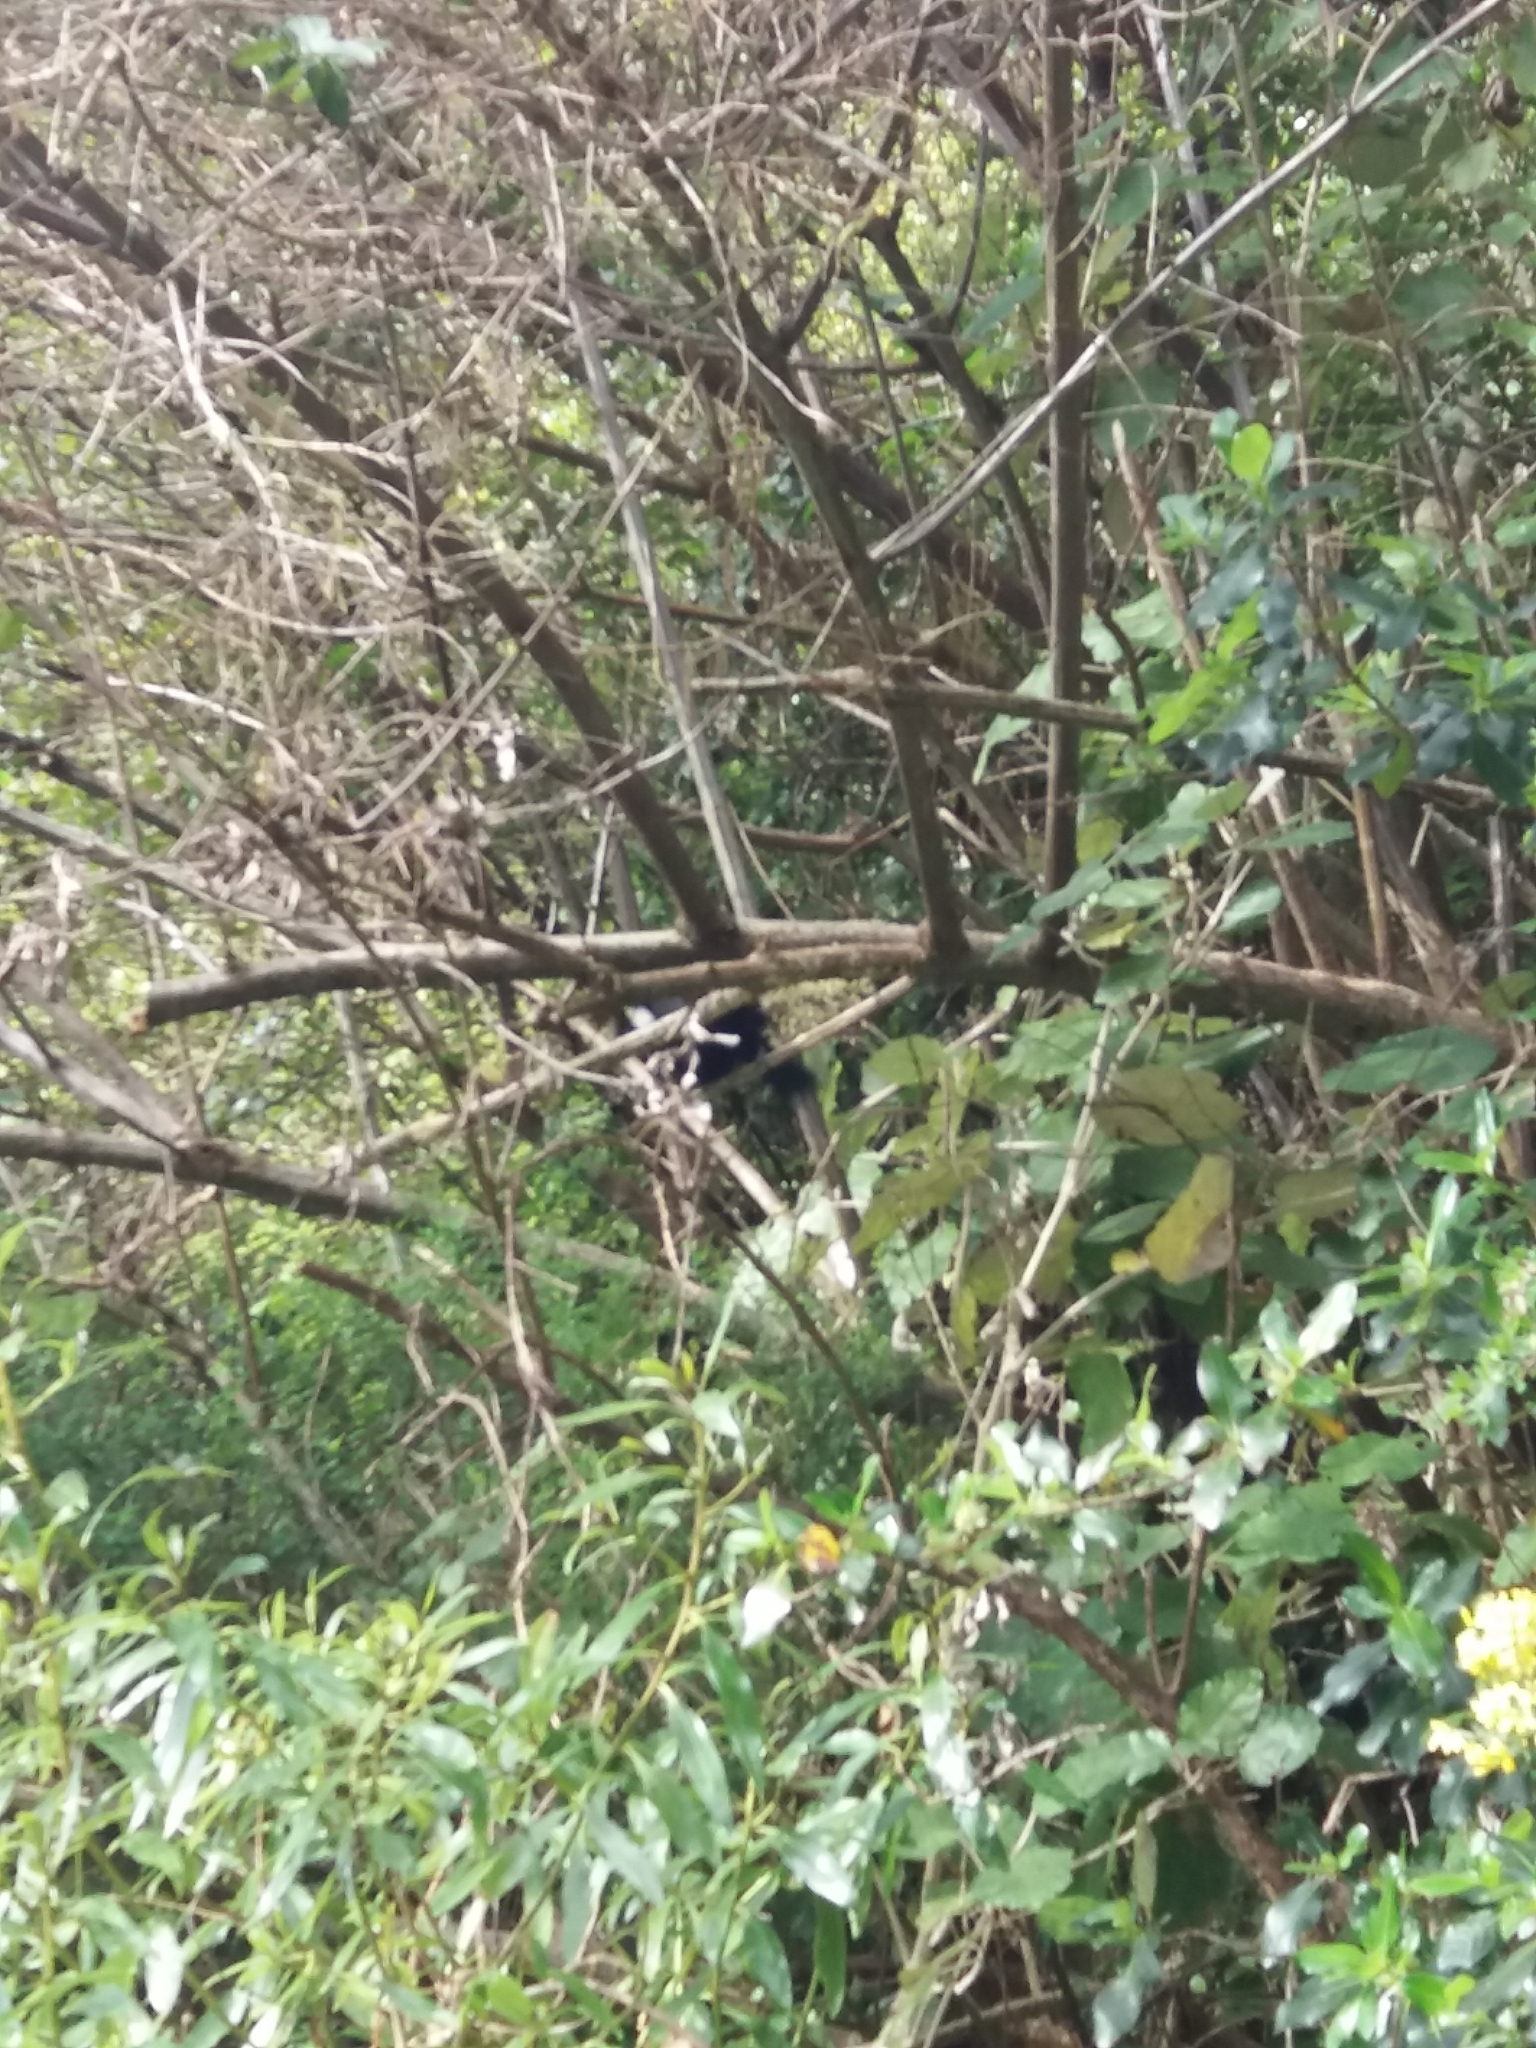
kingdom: Animalia
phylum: Chordata
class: Aves
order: Passeriformes
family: Meliphagidae
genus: Prosthemadera
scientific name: Prosthemadera novaeseelandiae
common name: Tui
